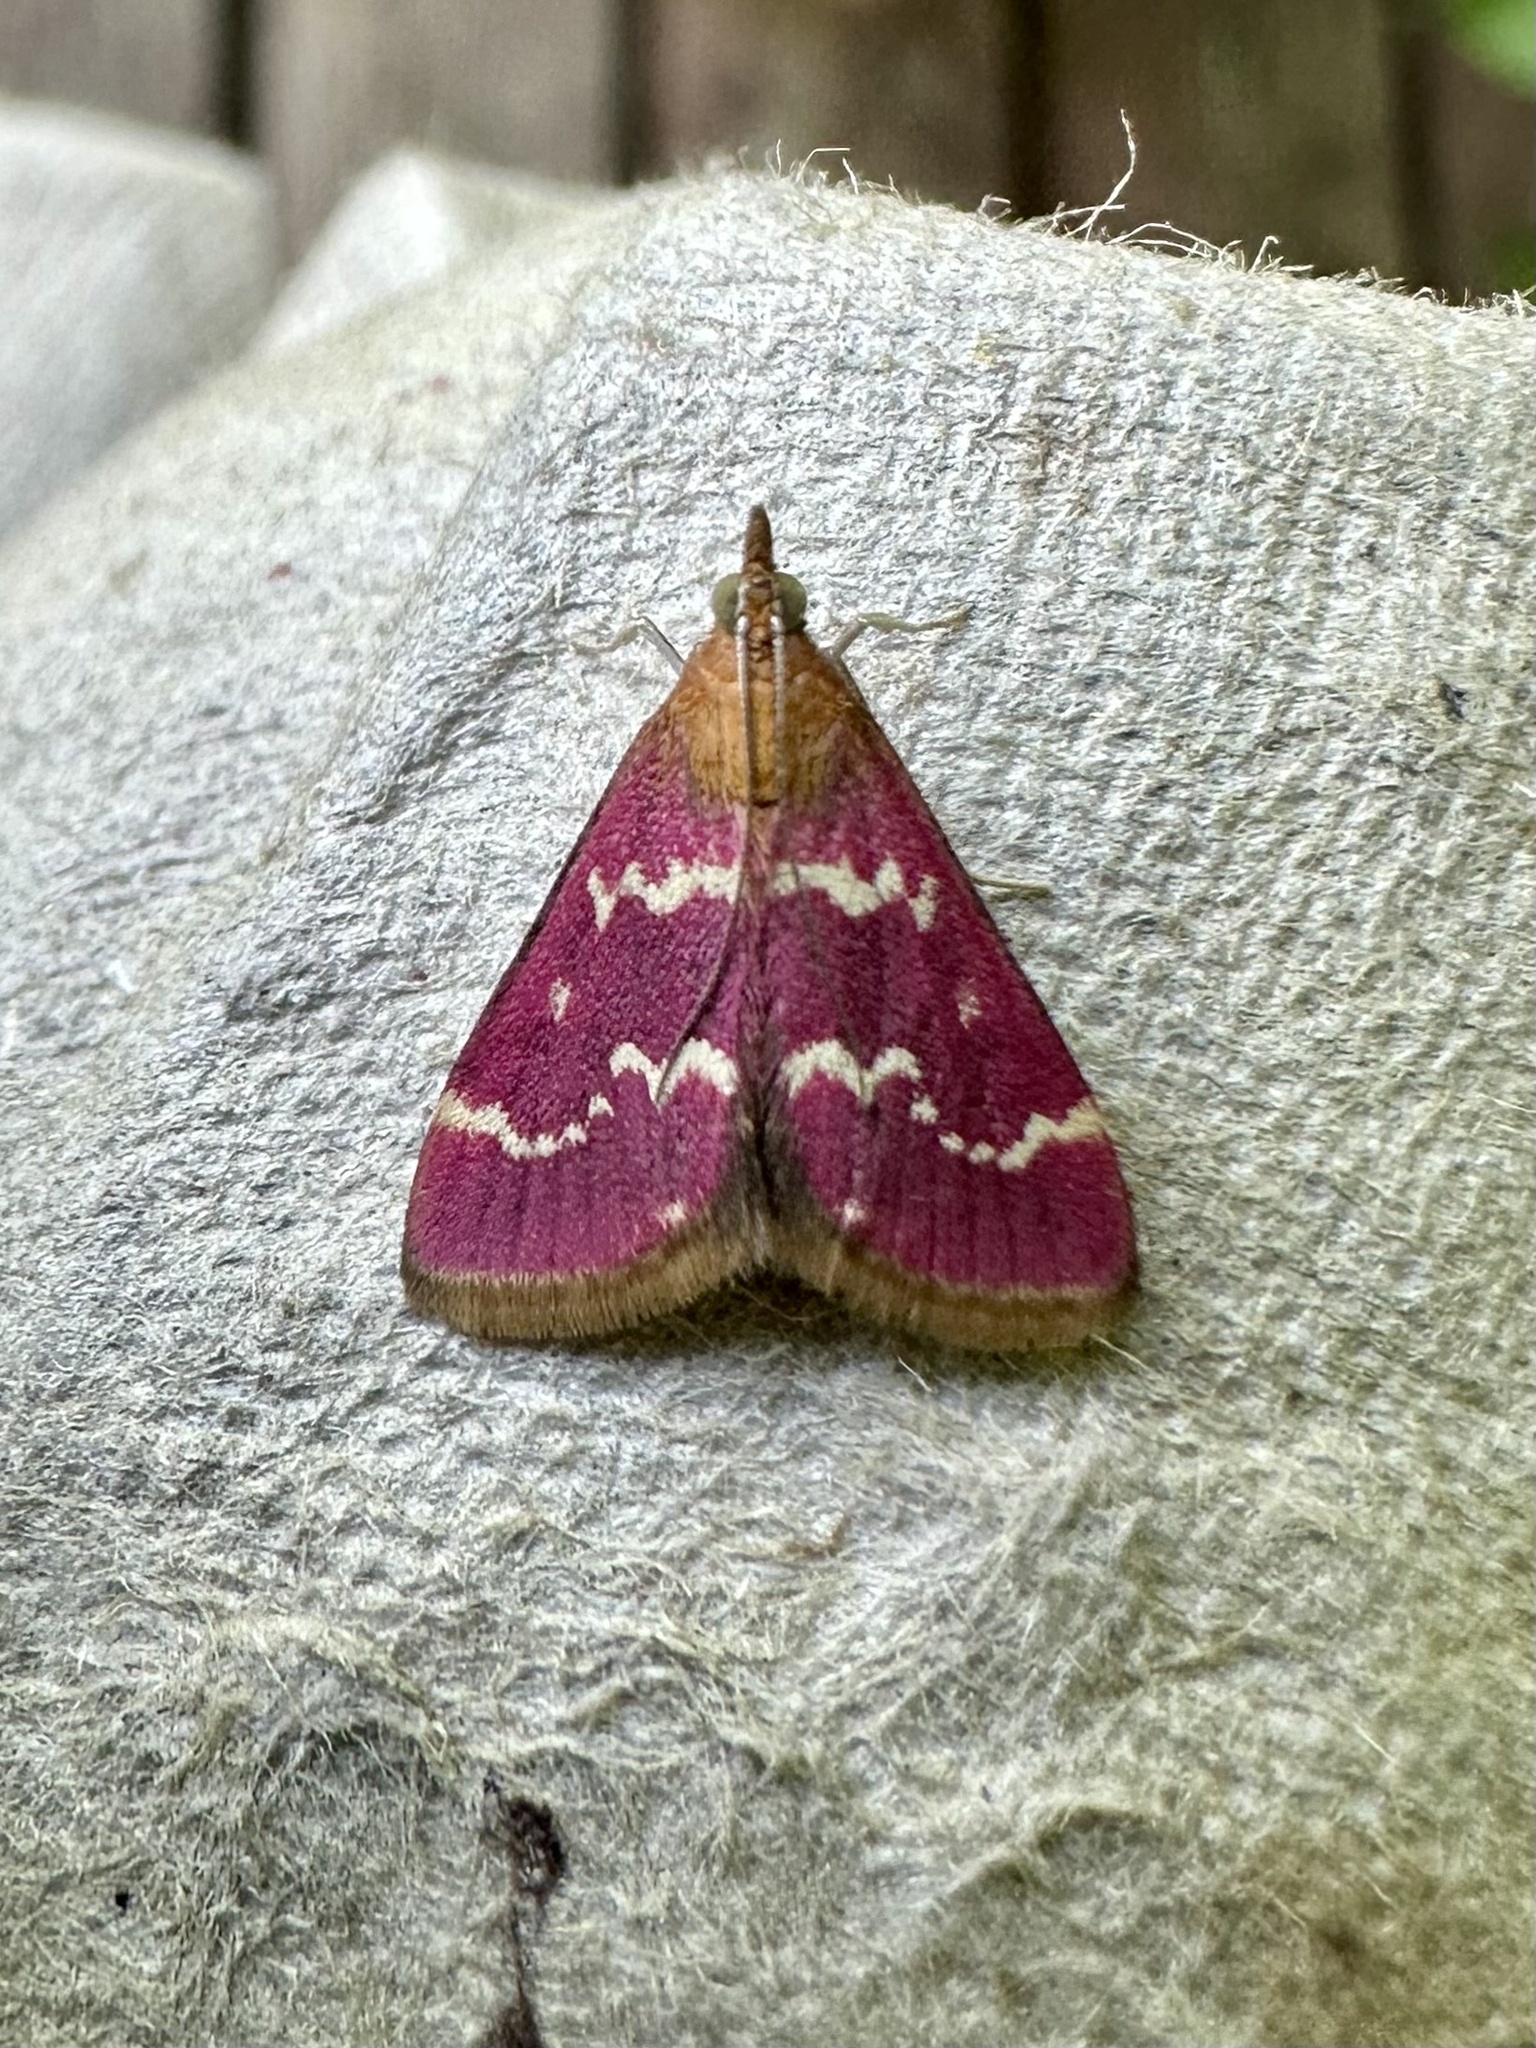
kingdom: Animalia
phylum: Arthropoda
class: Insecta
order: Lepidoptera
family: Crambidae
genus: Pyrausta
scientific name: Pyrausta signatalis
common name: Raspberry pyrausta moth
